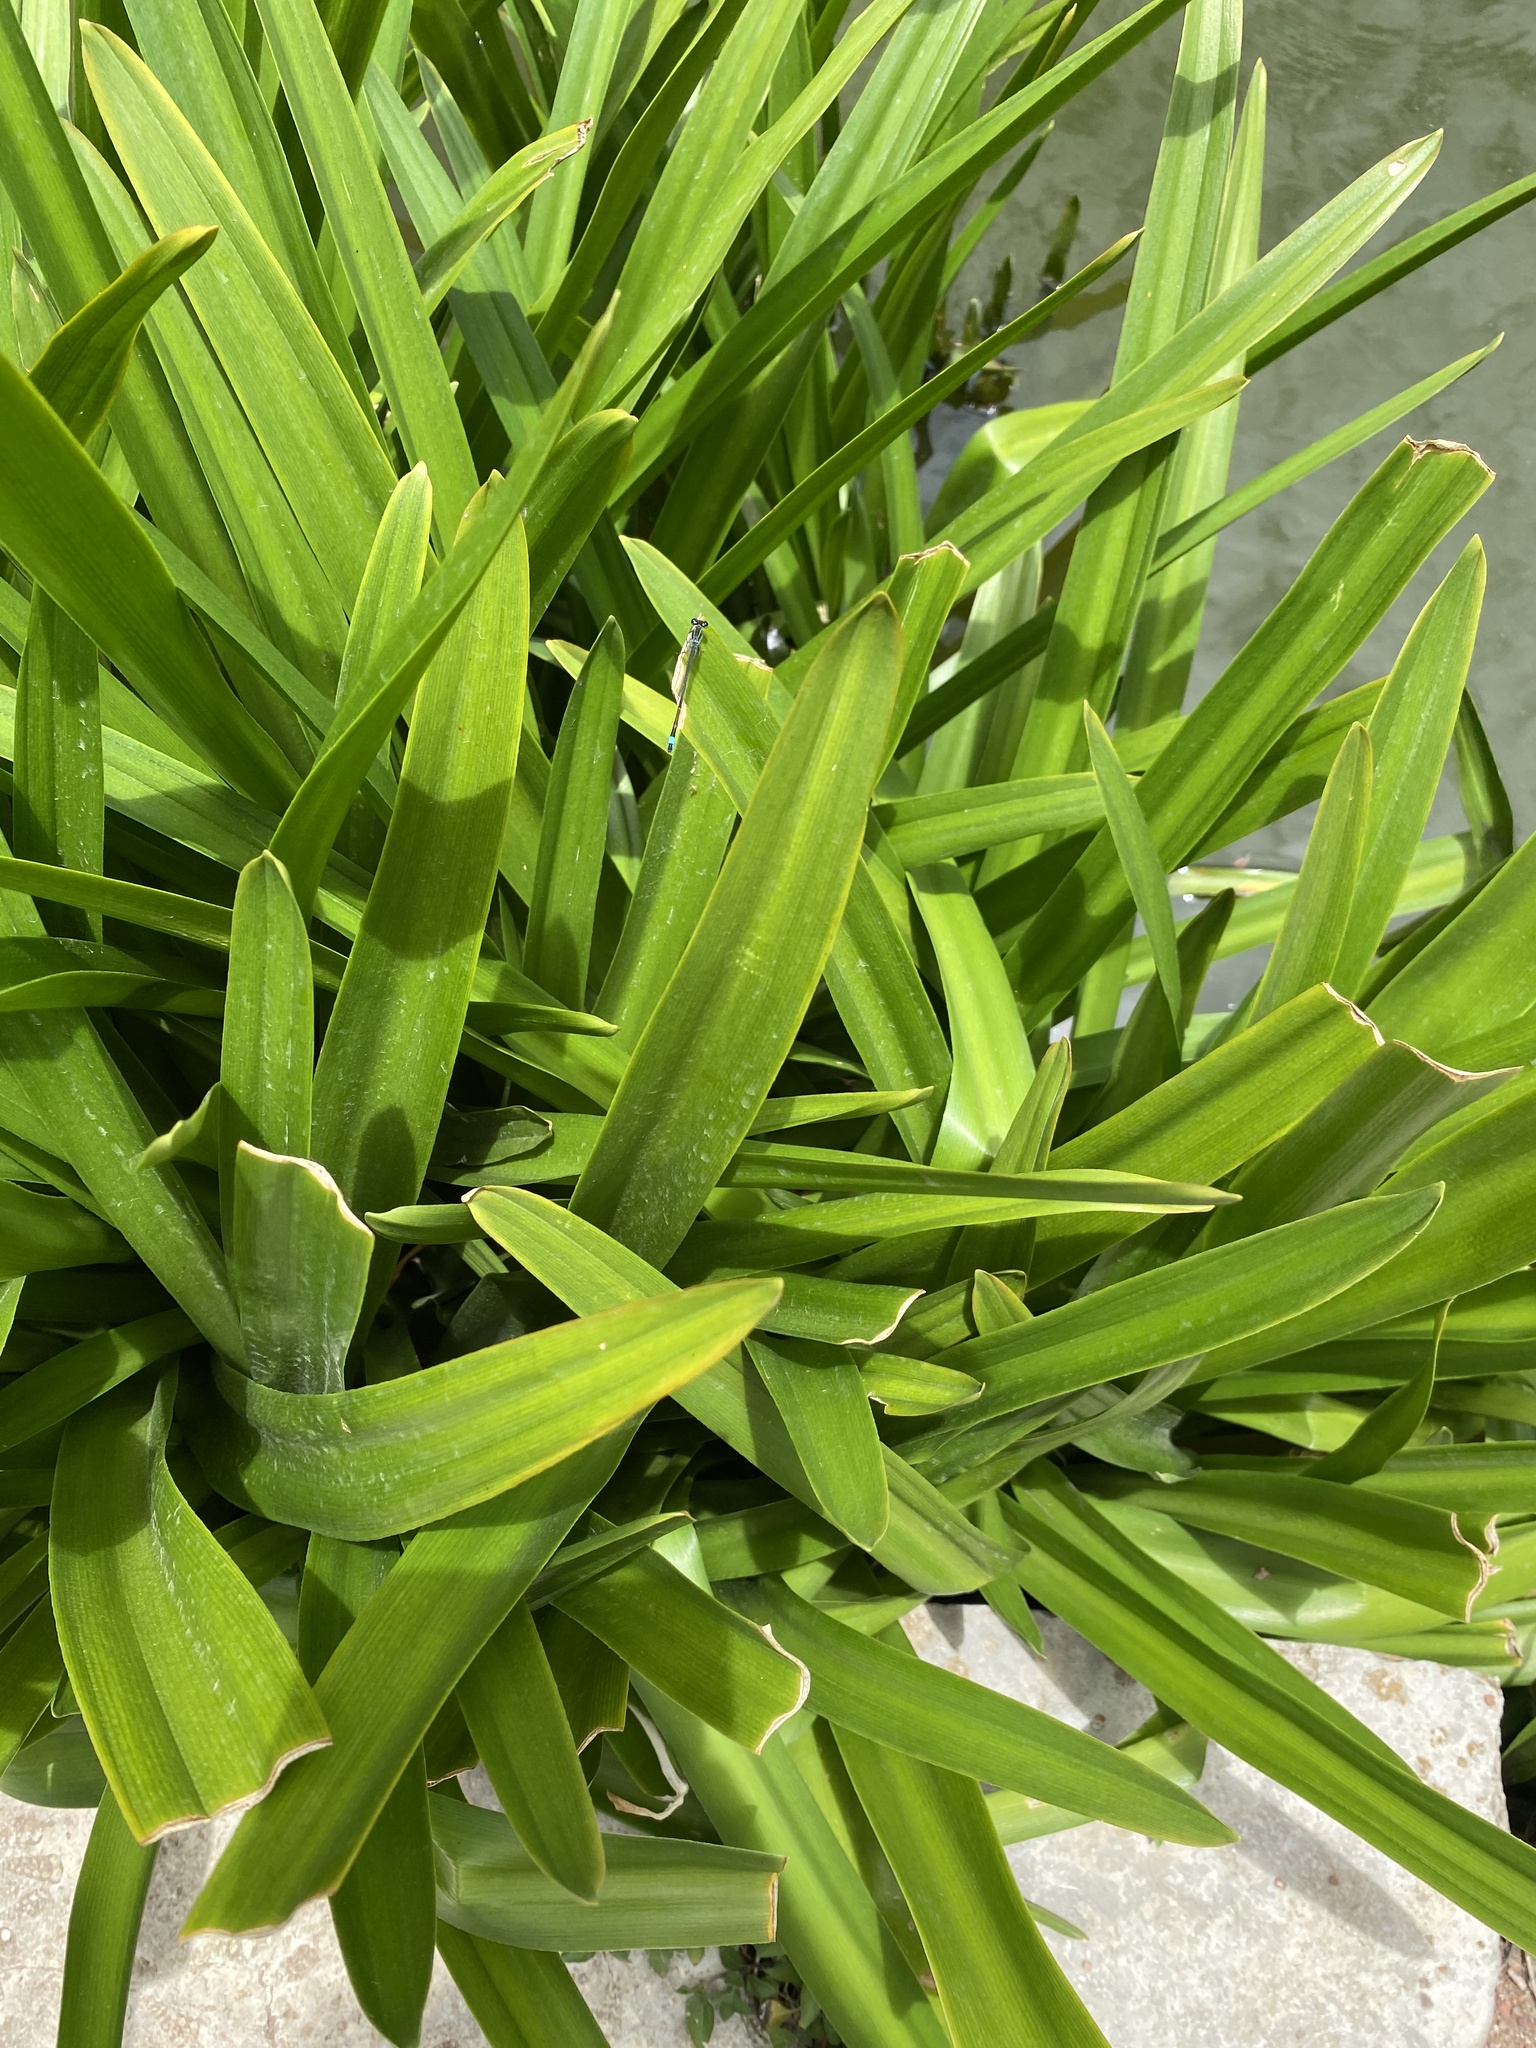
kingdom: Animalia
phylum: Arthropoda
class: Insecta
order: Odonata
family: Coenagrionidae
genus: Ischnura
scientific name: Ischnura ramburii
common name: Rambur's forktail
